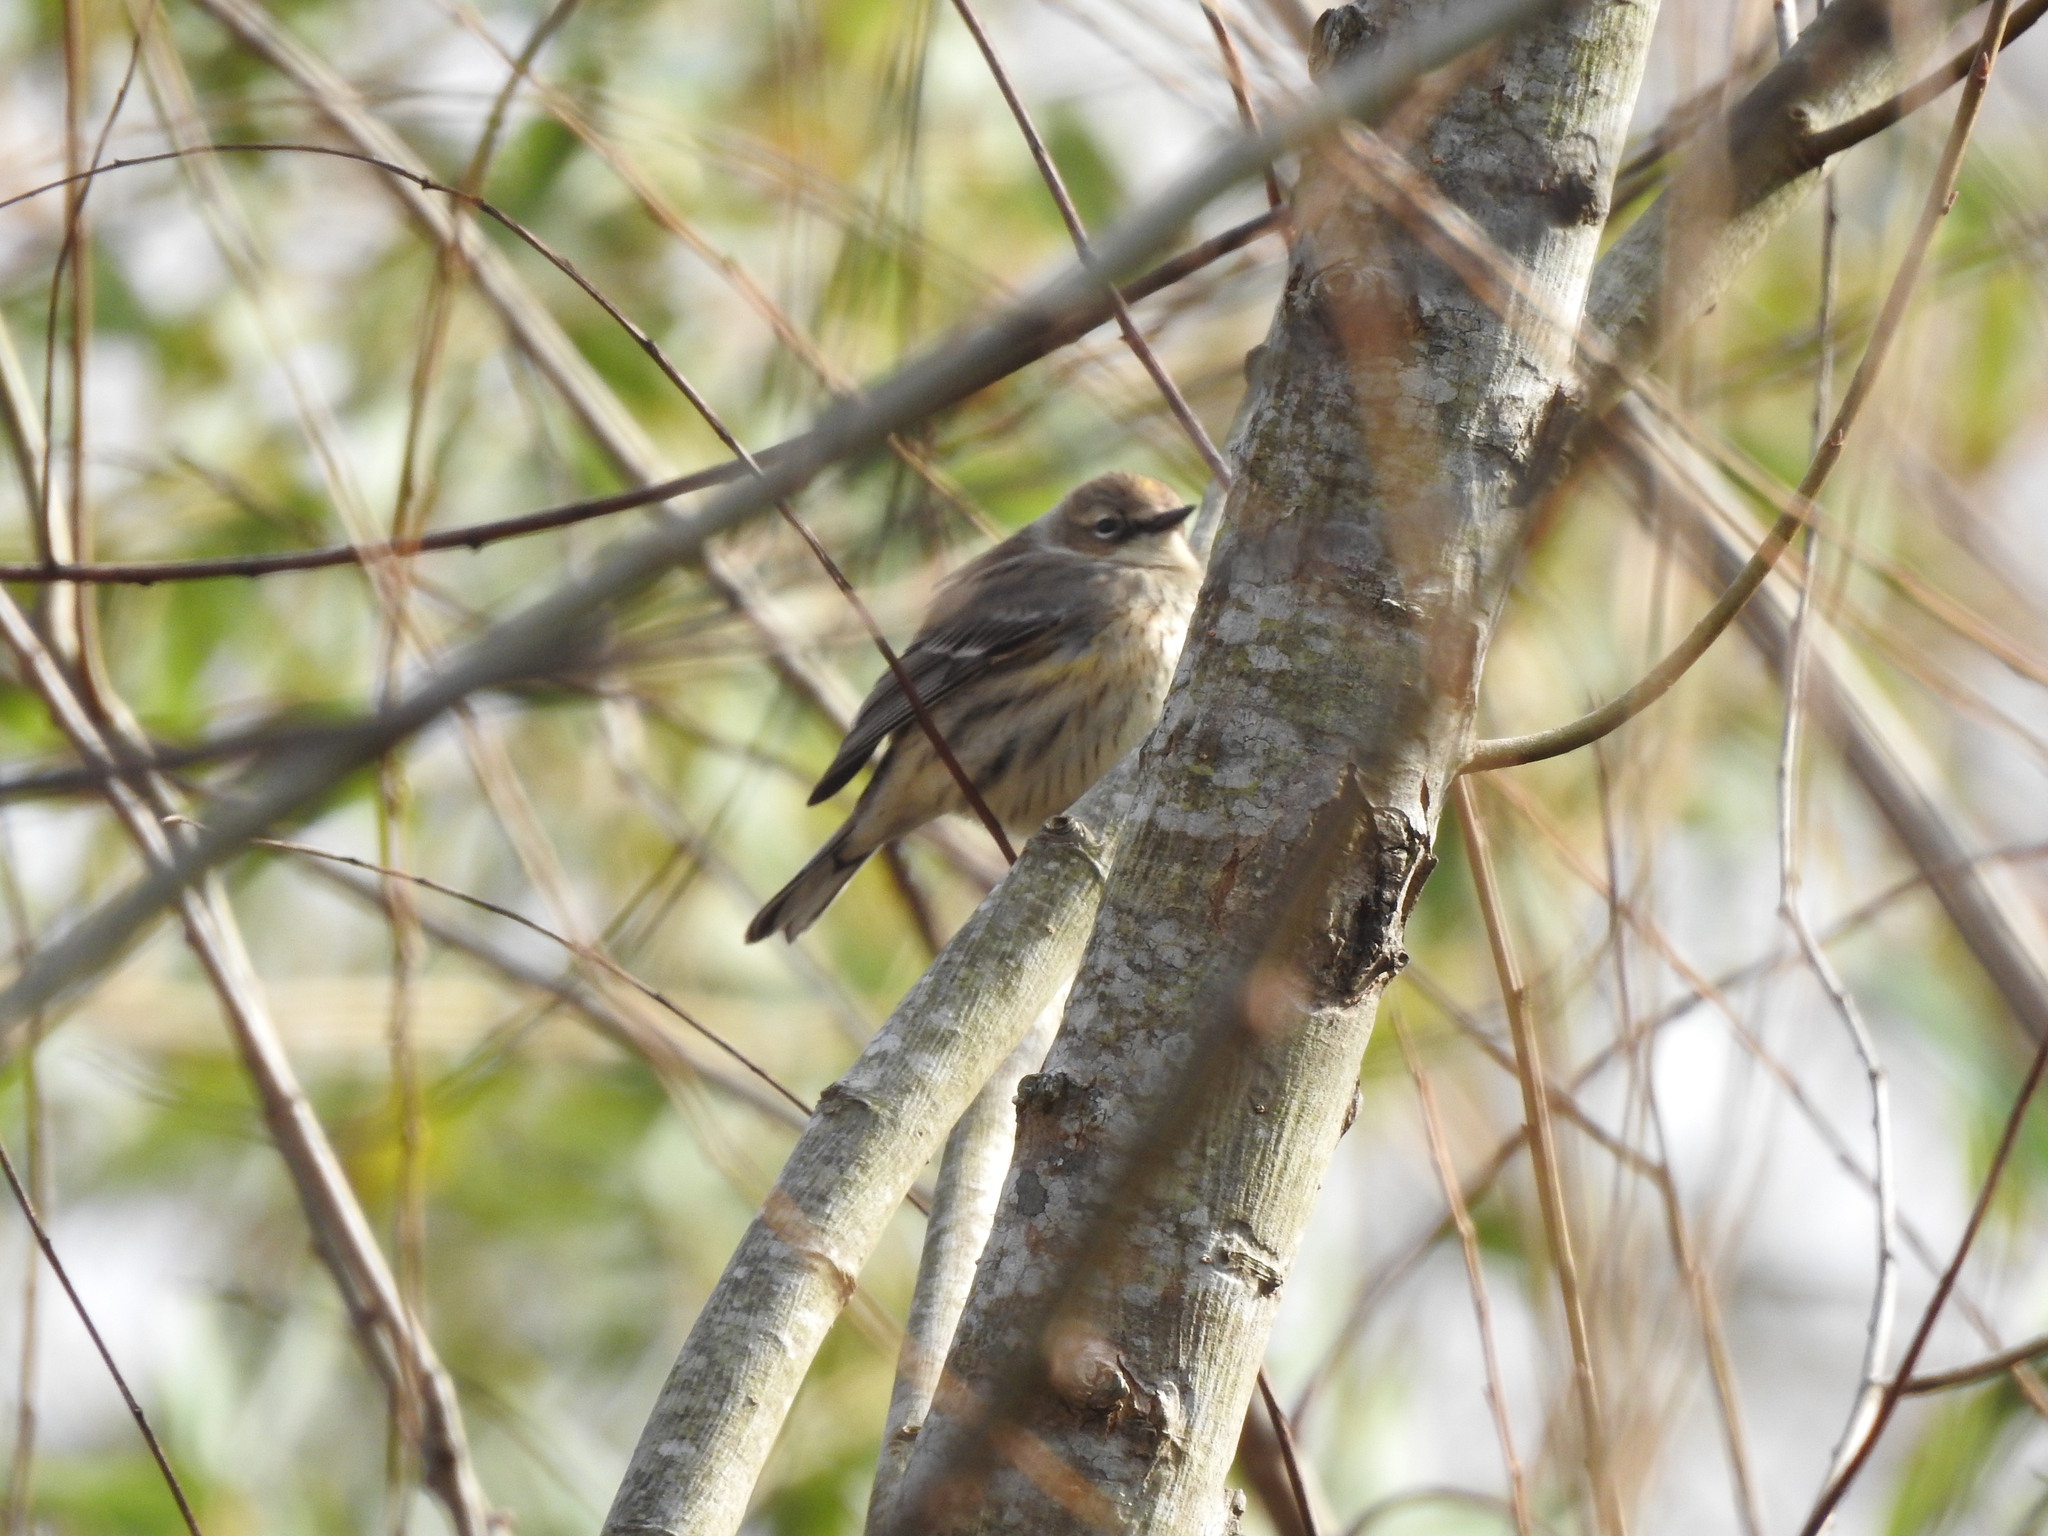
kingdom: Animalia
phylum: Chordata
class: Aves
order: Passeriformes
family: Parulidae
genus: Setophaga
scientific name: Setophaga coronata
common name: Myrtle warbler
